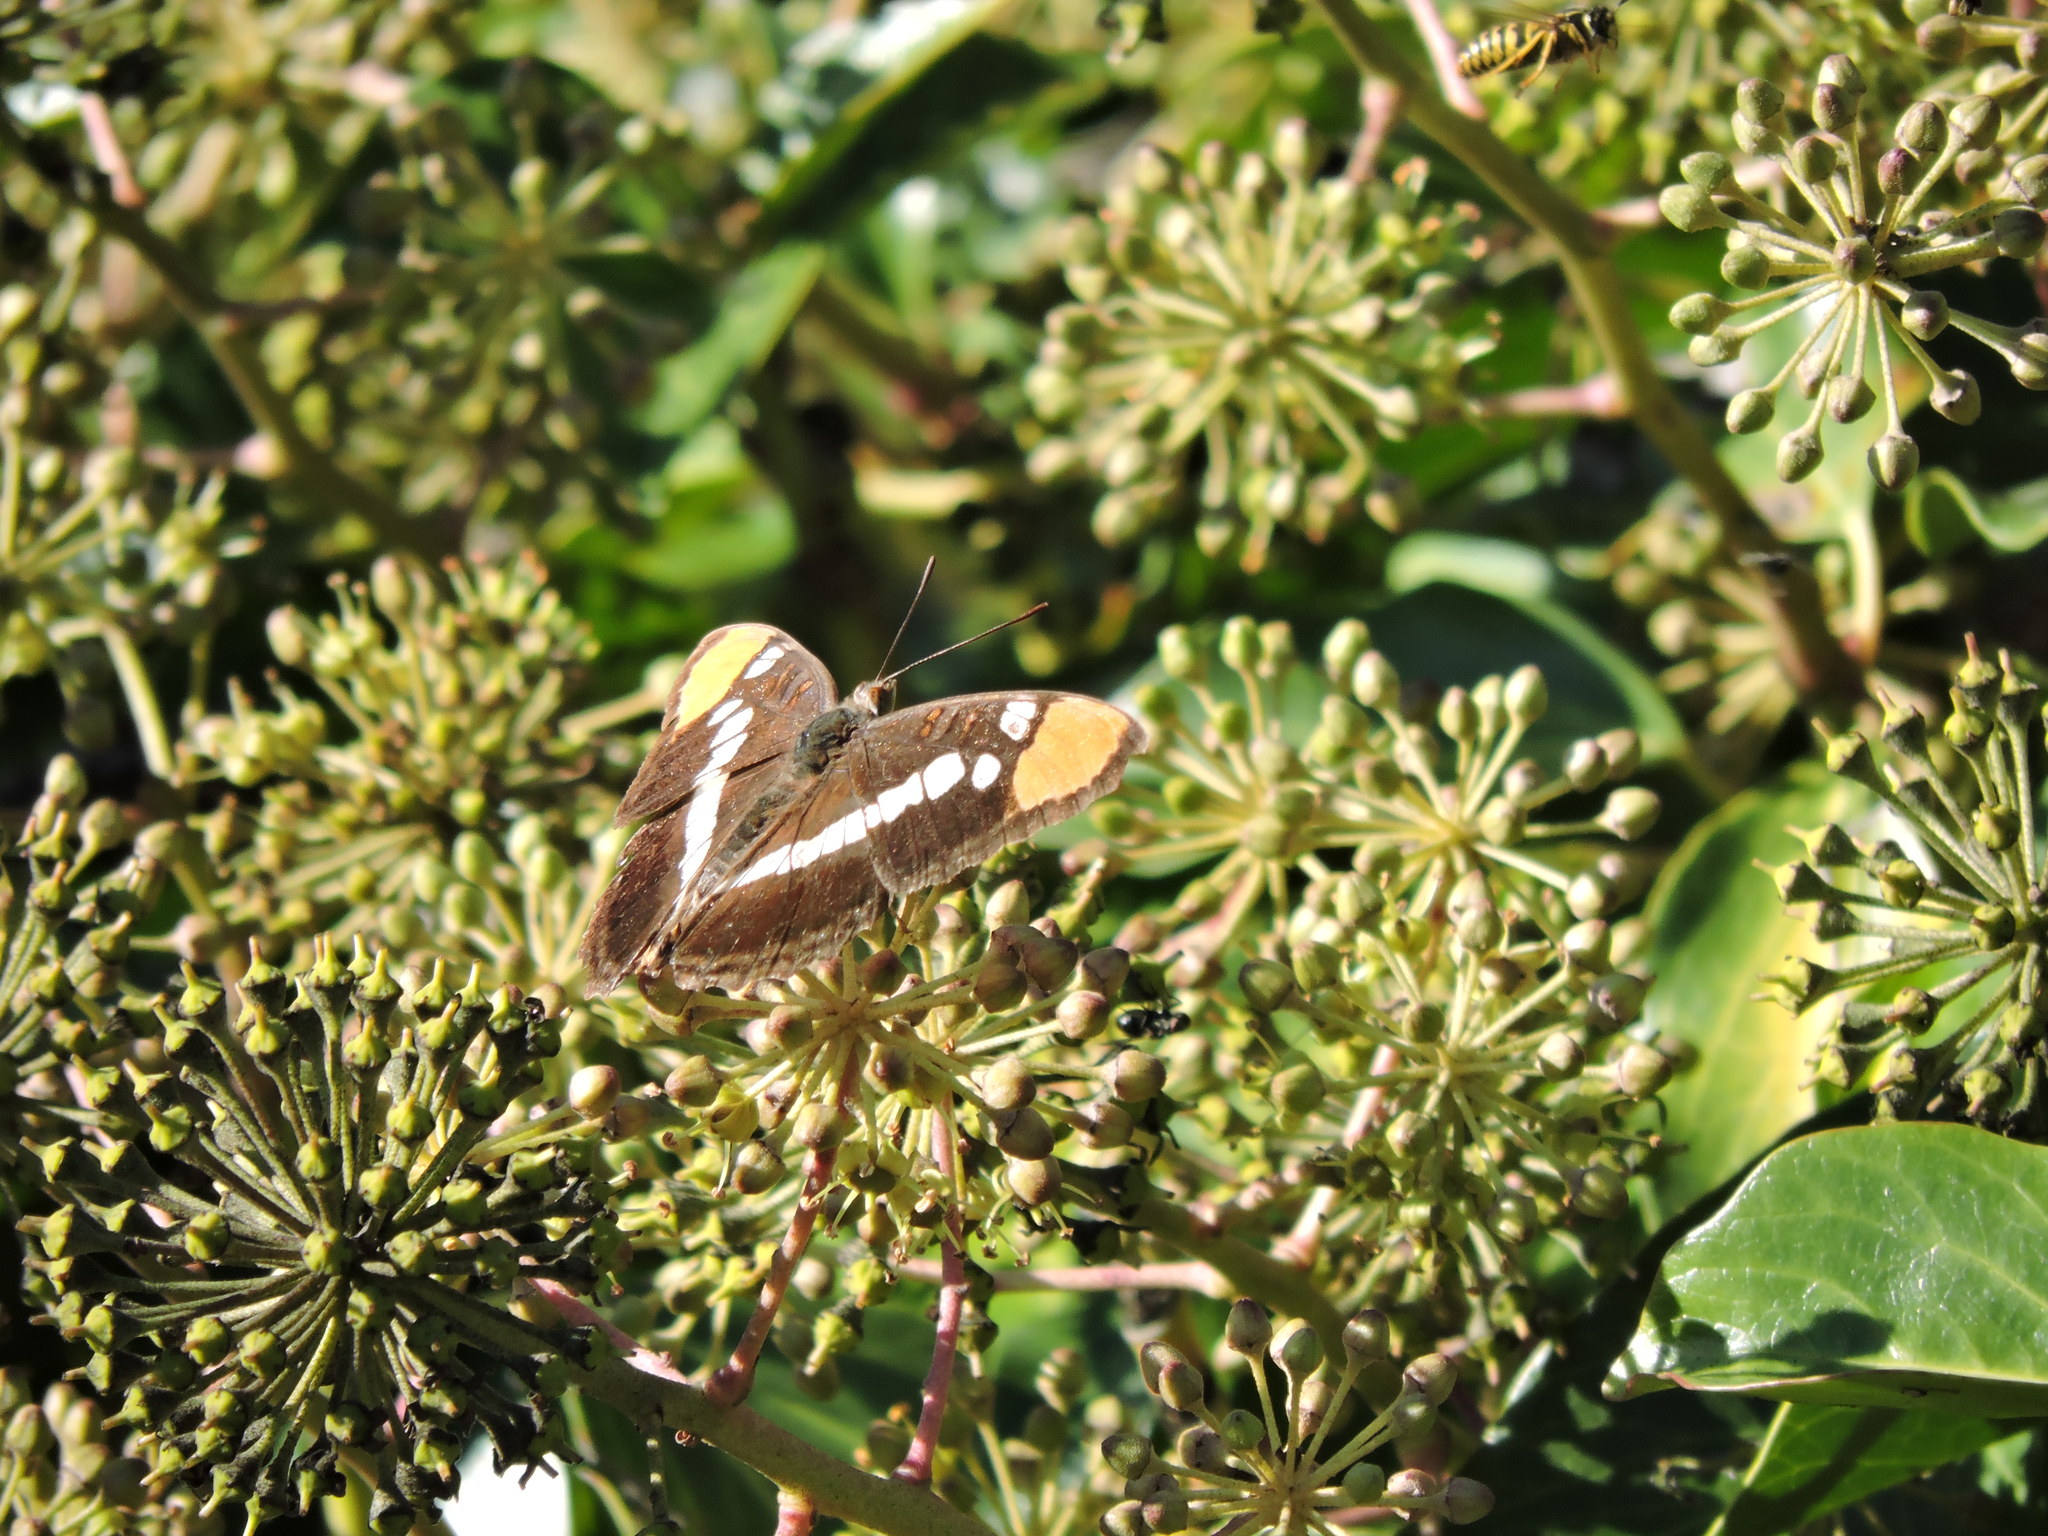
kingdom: Animalia
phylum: Arthropoda
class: Insecta
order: Lepidoptera
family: Nymphalidae
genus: Limenitis
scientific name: Limenitis bredowii
